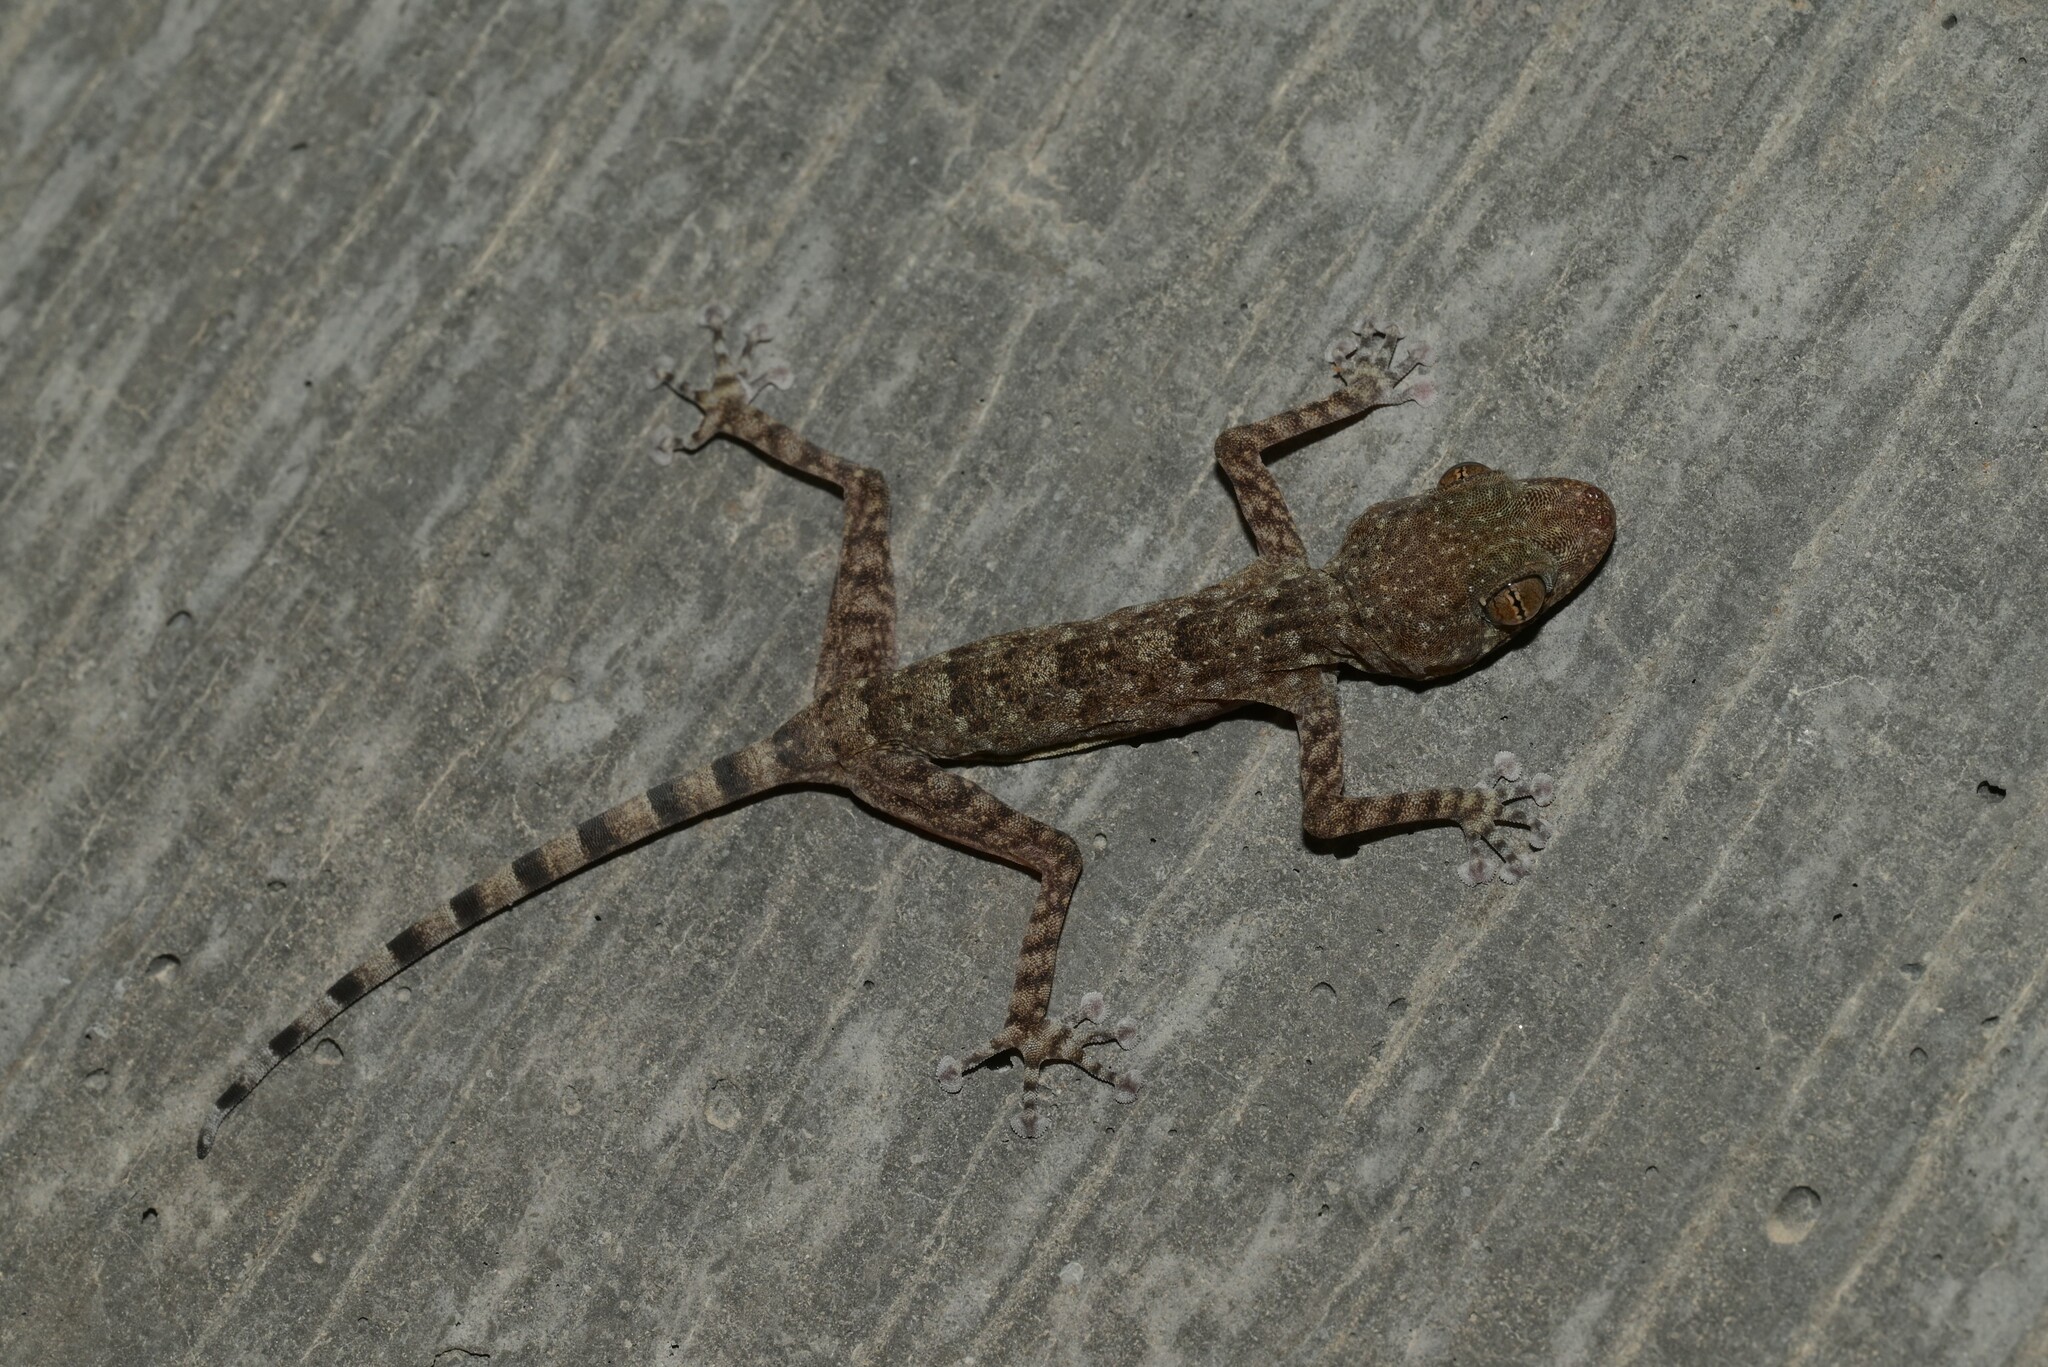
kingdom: Animalia
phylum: Chordata
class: Squamata
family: Phyllodactylidae
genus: Ptyodactylus
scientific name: Ptyodactylus orlovi
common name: Orlov's fan-footed gecko
